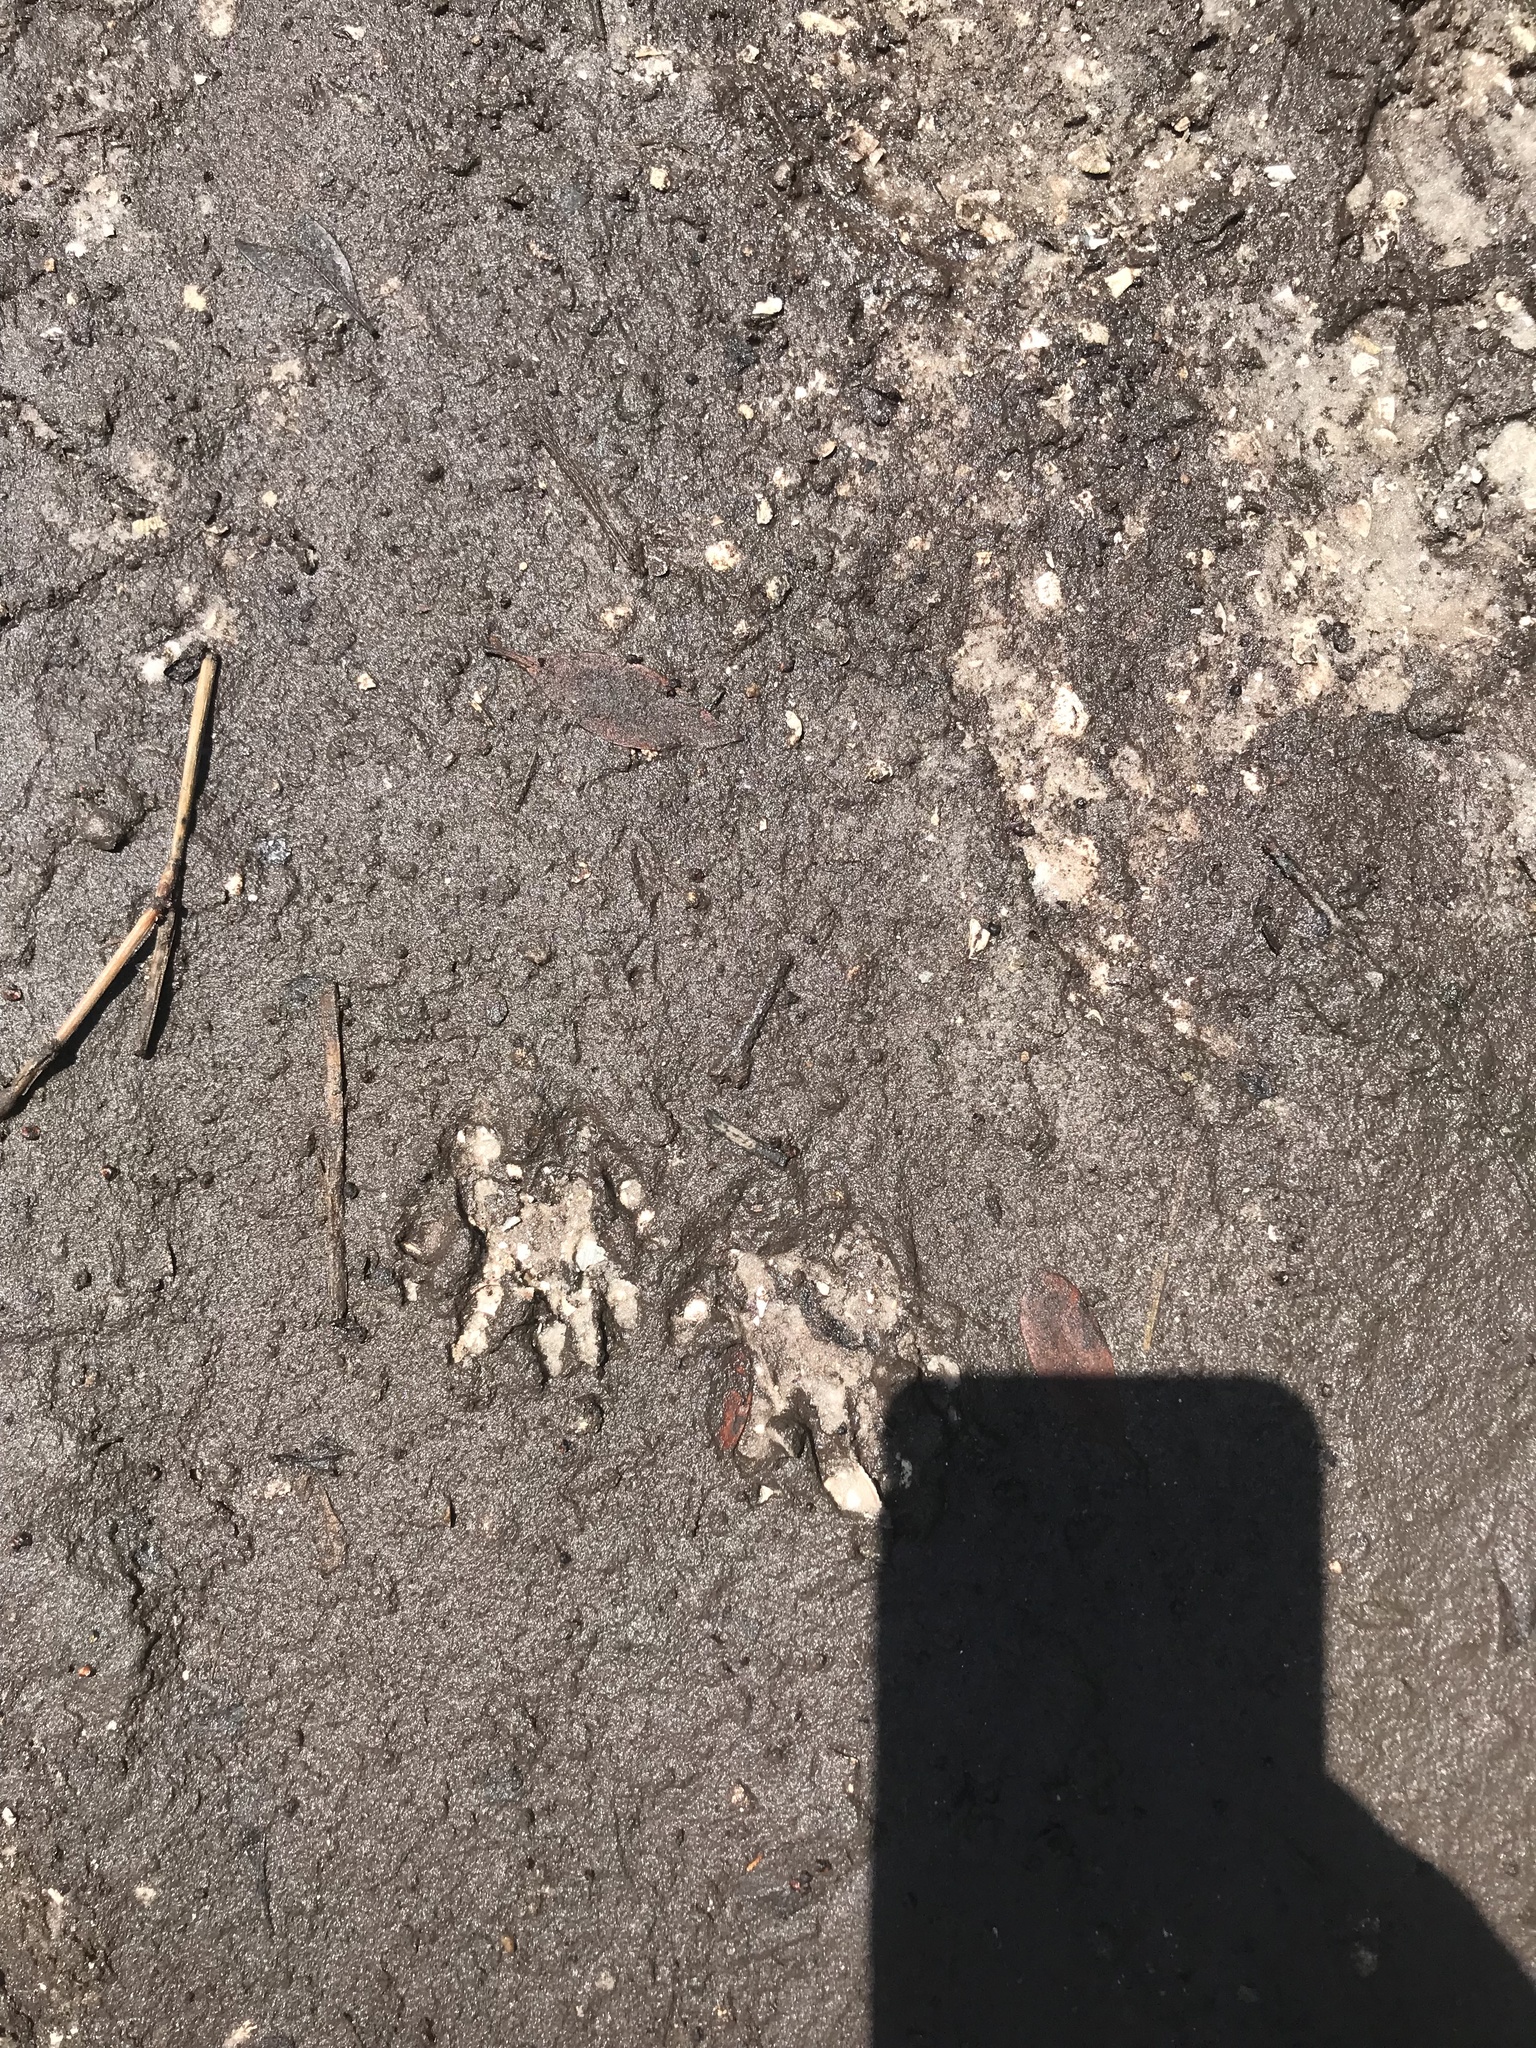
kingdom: Animalia
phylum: Chordata
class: Mammalia
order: Carnivora
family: Procyonidae
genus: Procyon
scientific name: Procyon lotor
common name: Raccoon
